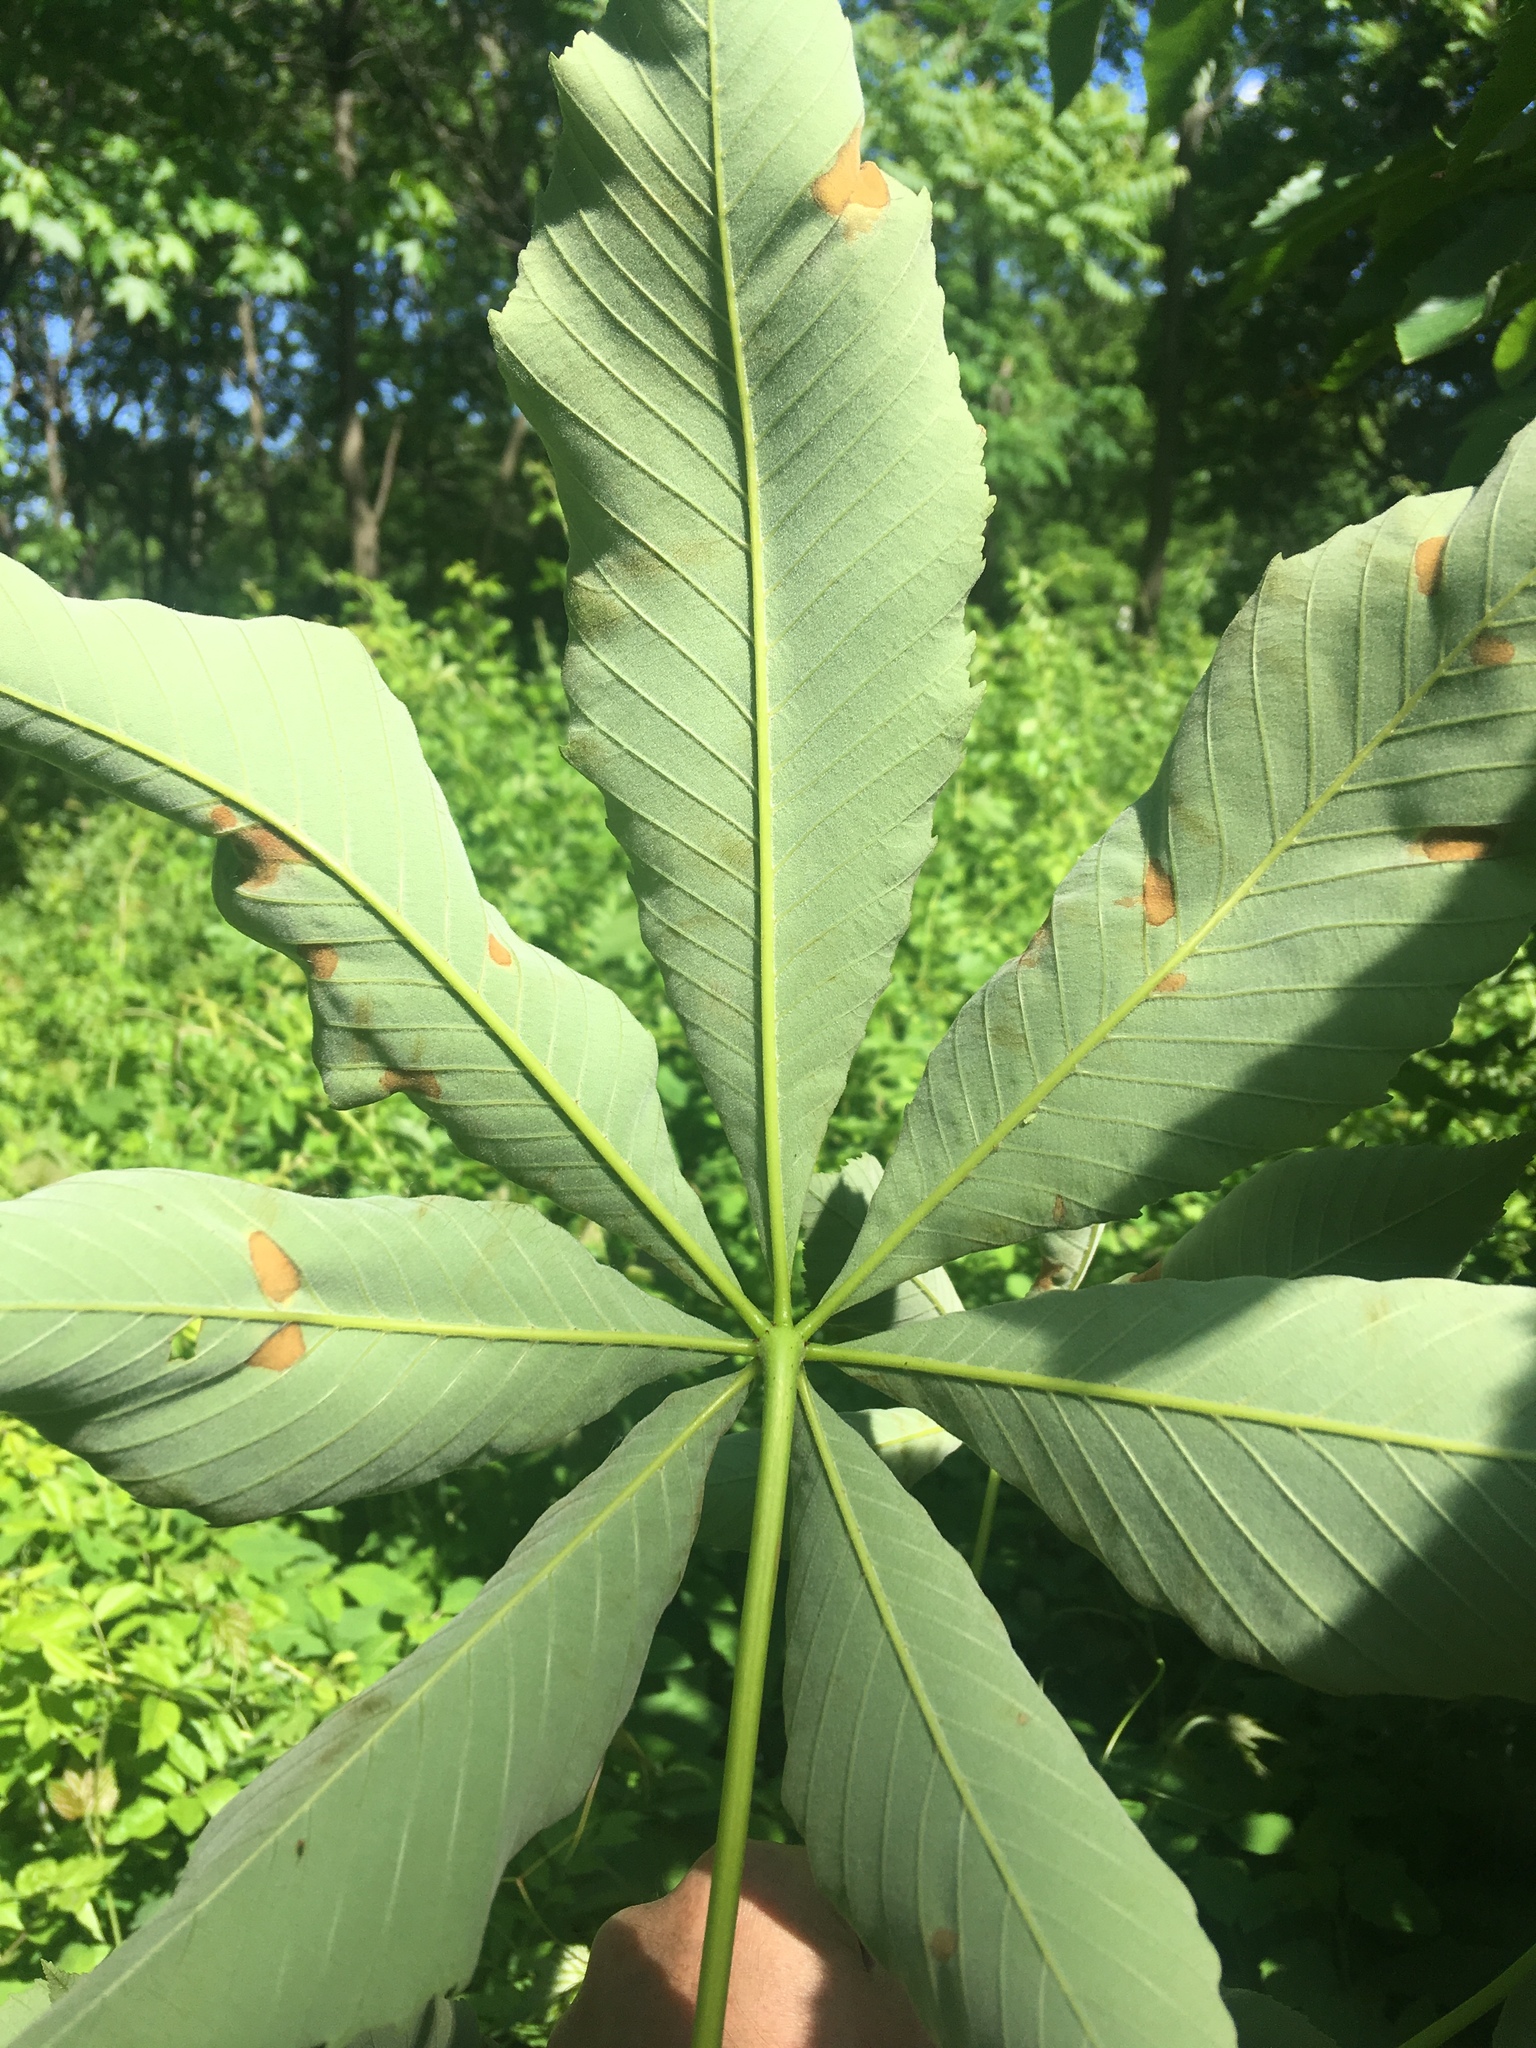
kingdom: Plantae
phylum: Tracheophyta
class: Magnoliopsida
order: Sapindales
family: Sapindaceae
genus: Aesculus
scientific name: Aesculus glabra
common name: Ohio buckeye
